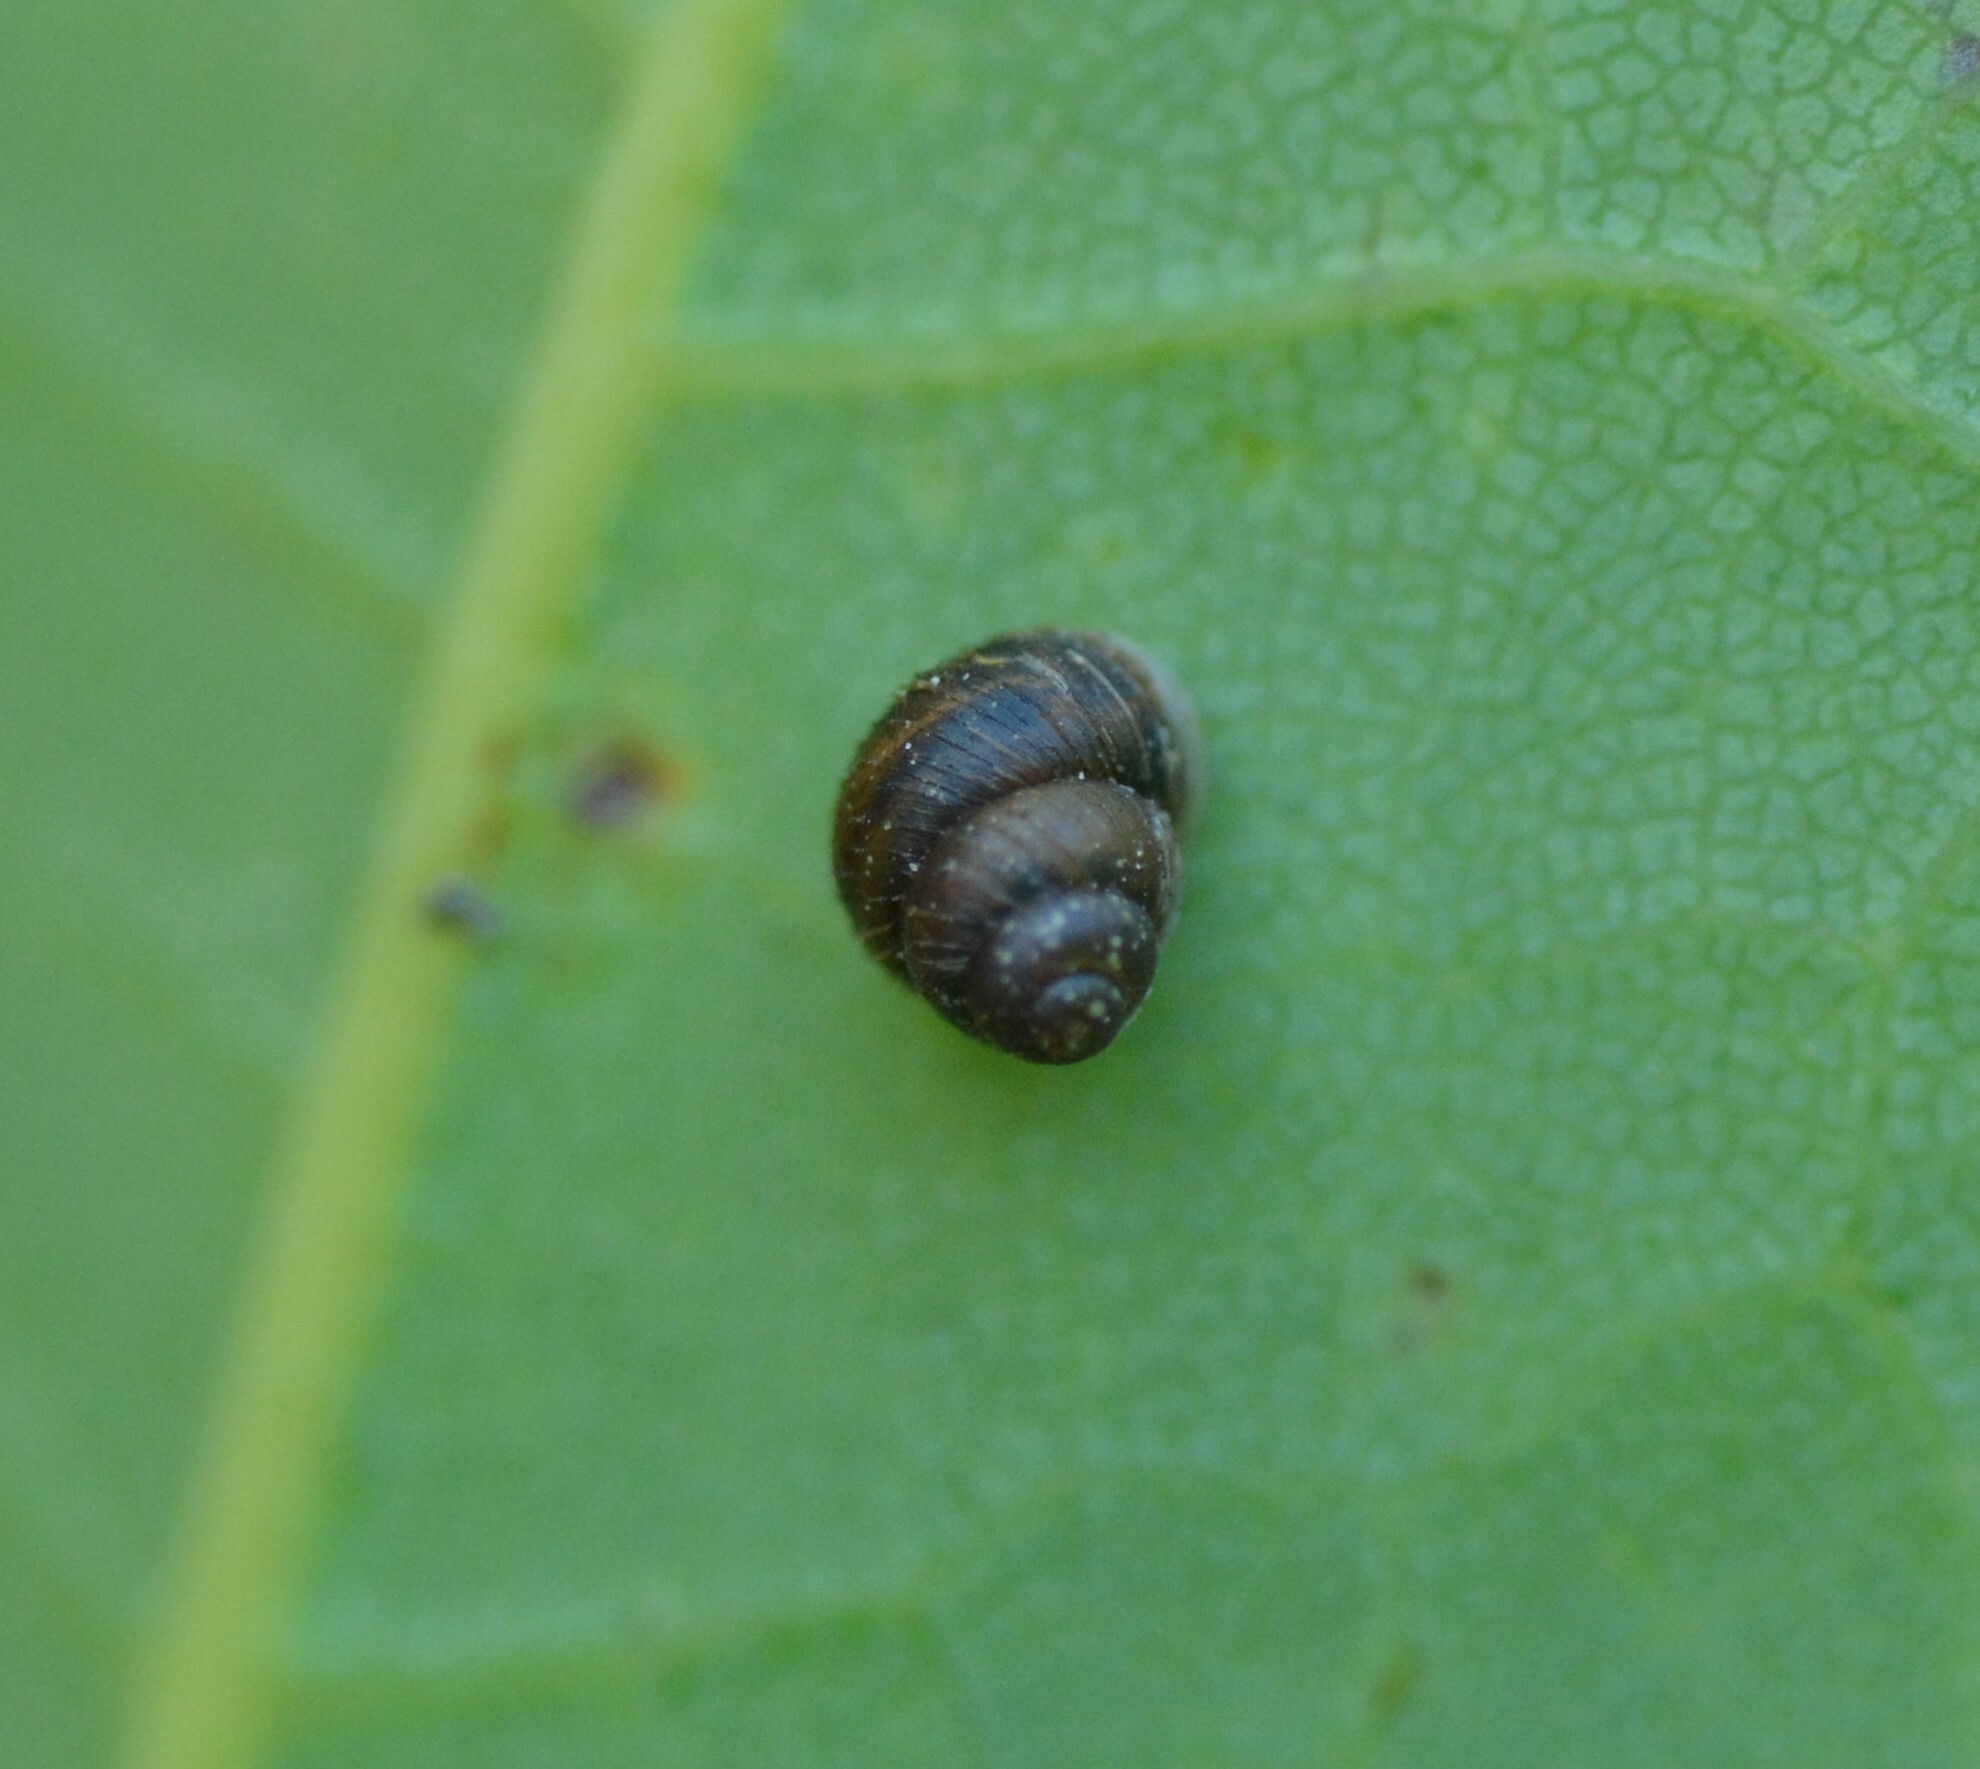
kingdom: Animalia
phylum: Mollusca
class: Gastropoda
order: Stylommatophora
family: Valloniidae
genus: Zoogenetes
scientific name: Zoogenetes harpa
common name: Boreal top
